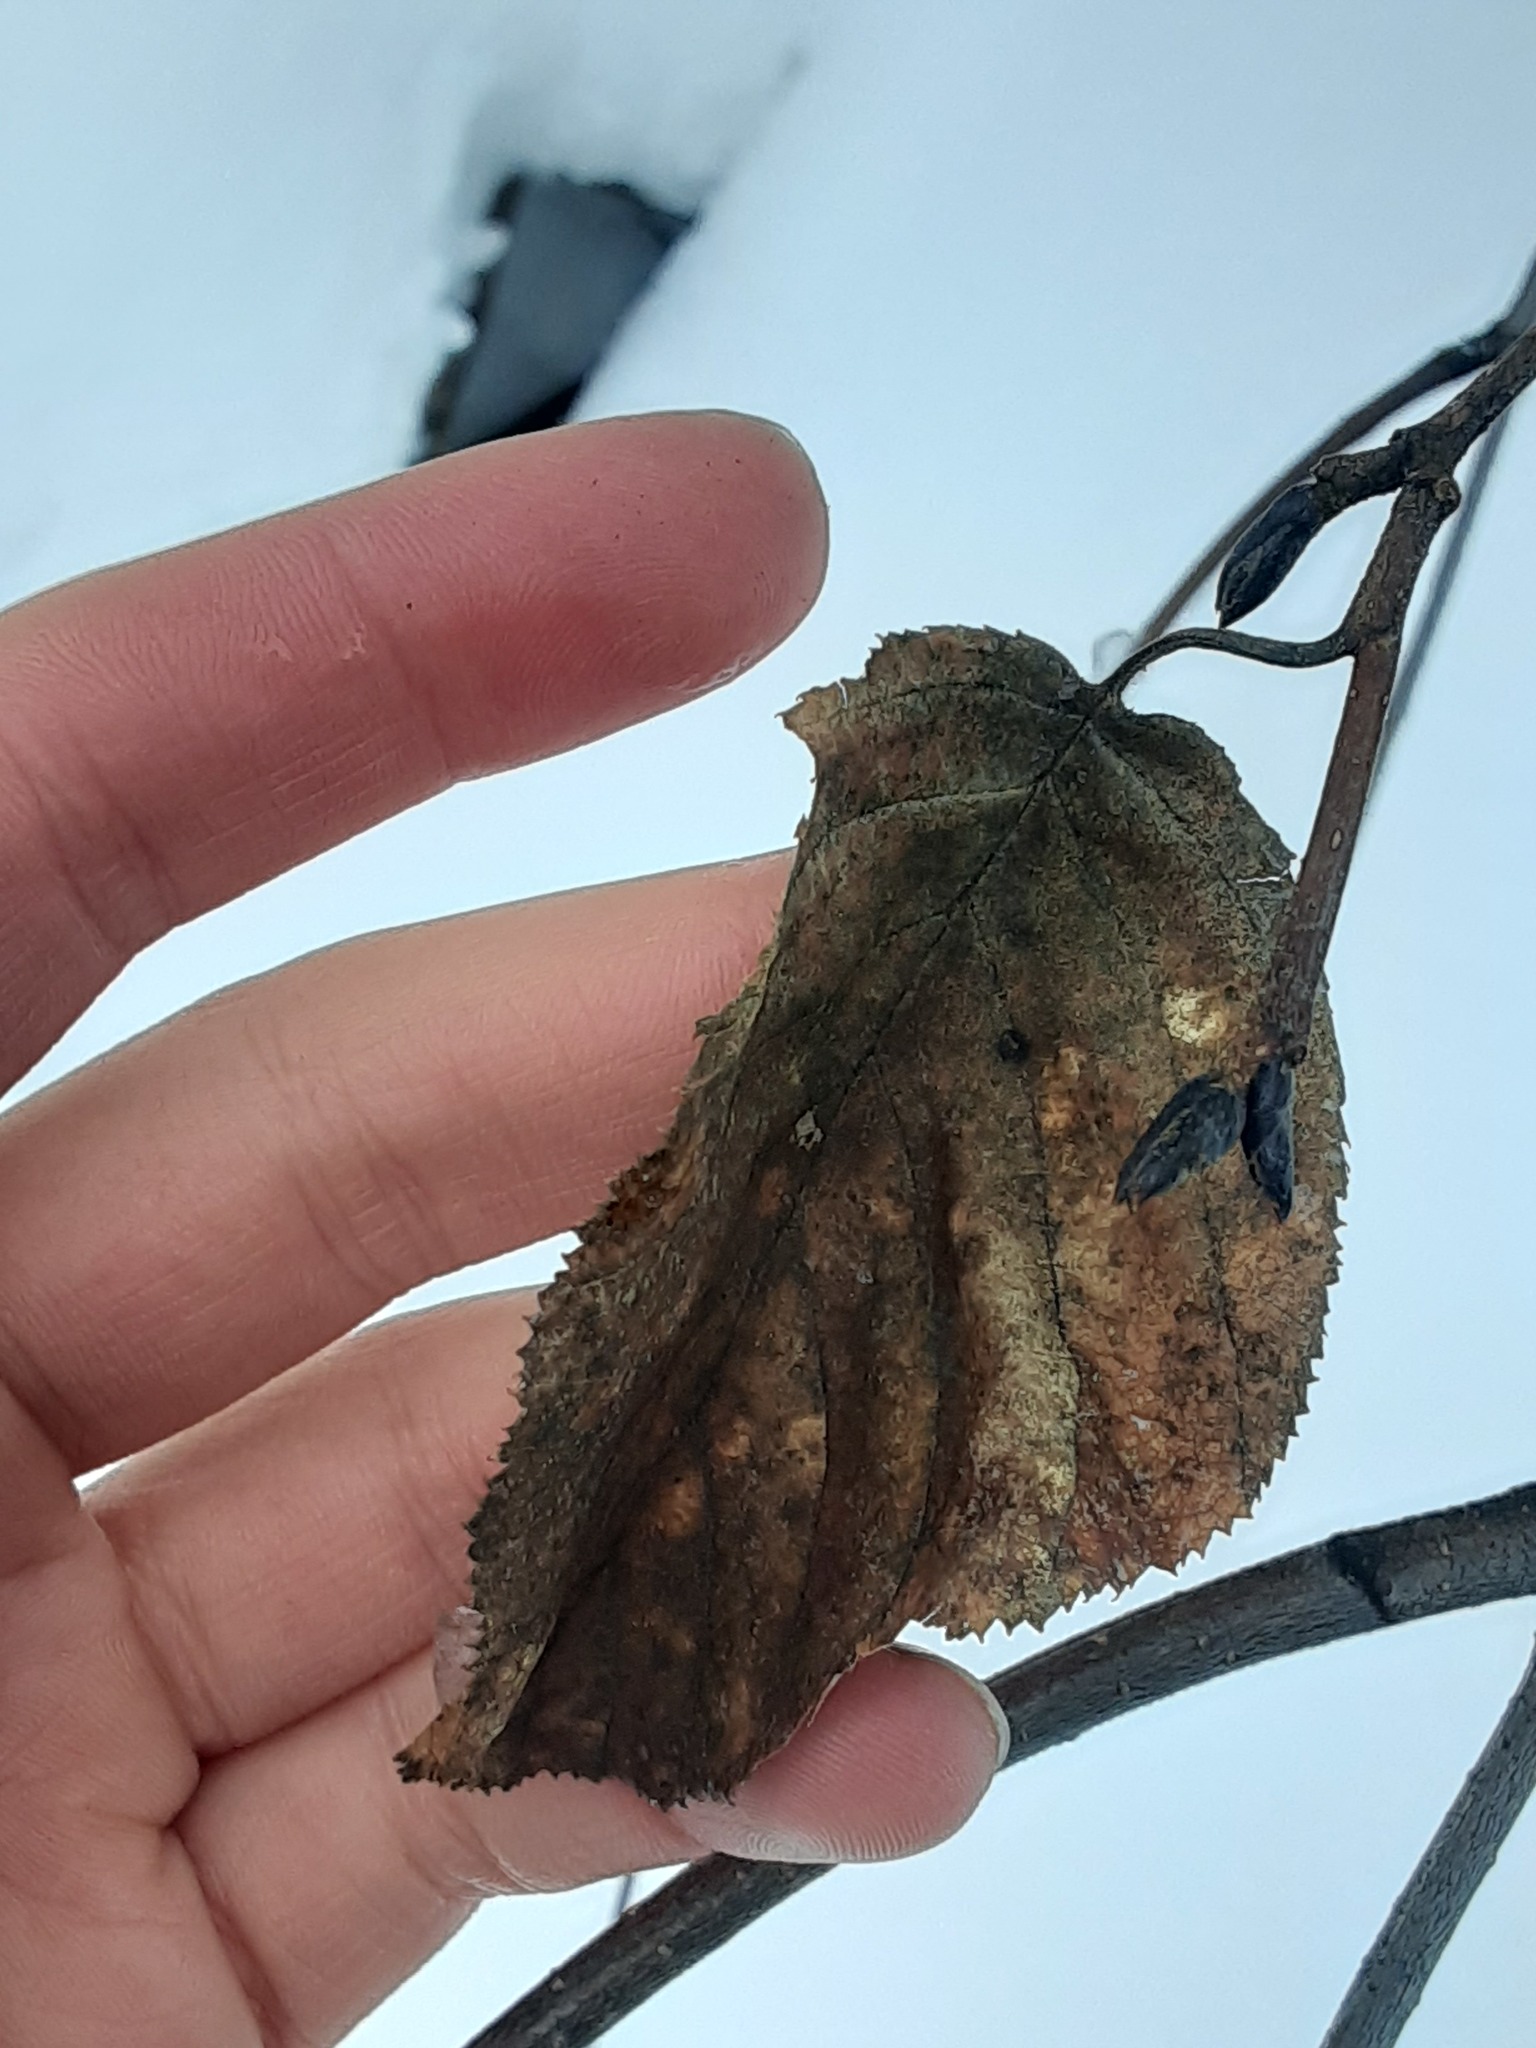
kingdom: Plantae
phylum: Tracheophyta
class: Magnoliopsida
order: Fagales
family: Betulaceae
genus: Alnus
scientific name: Alnus alnobetula
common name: Green alder
